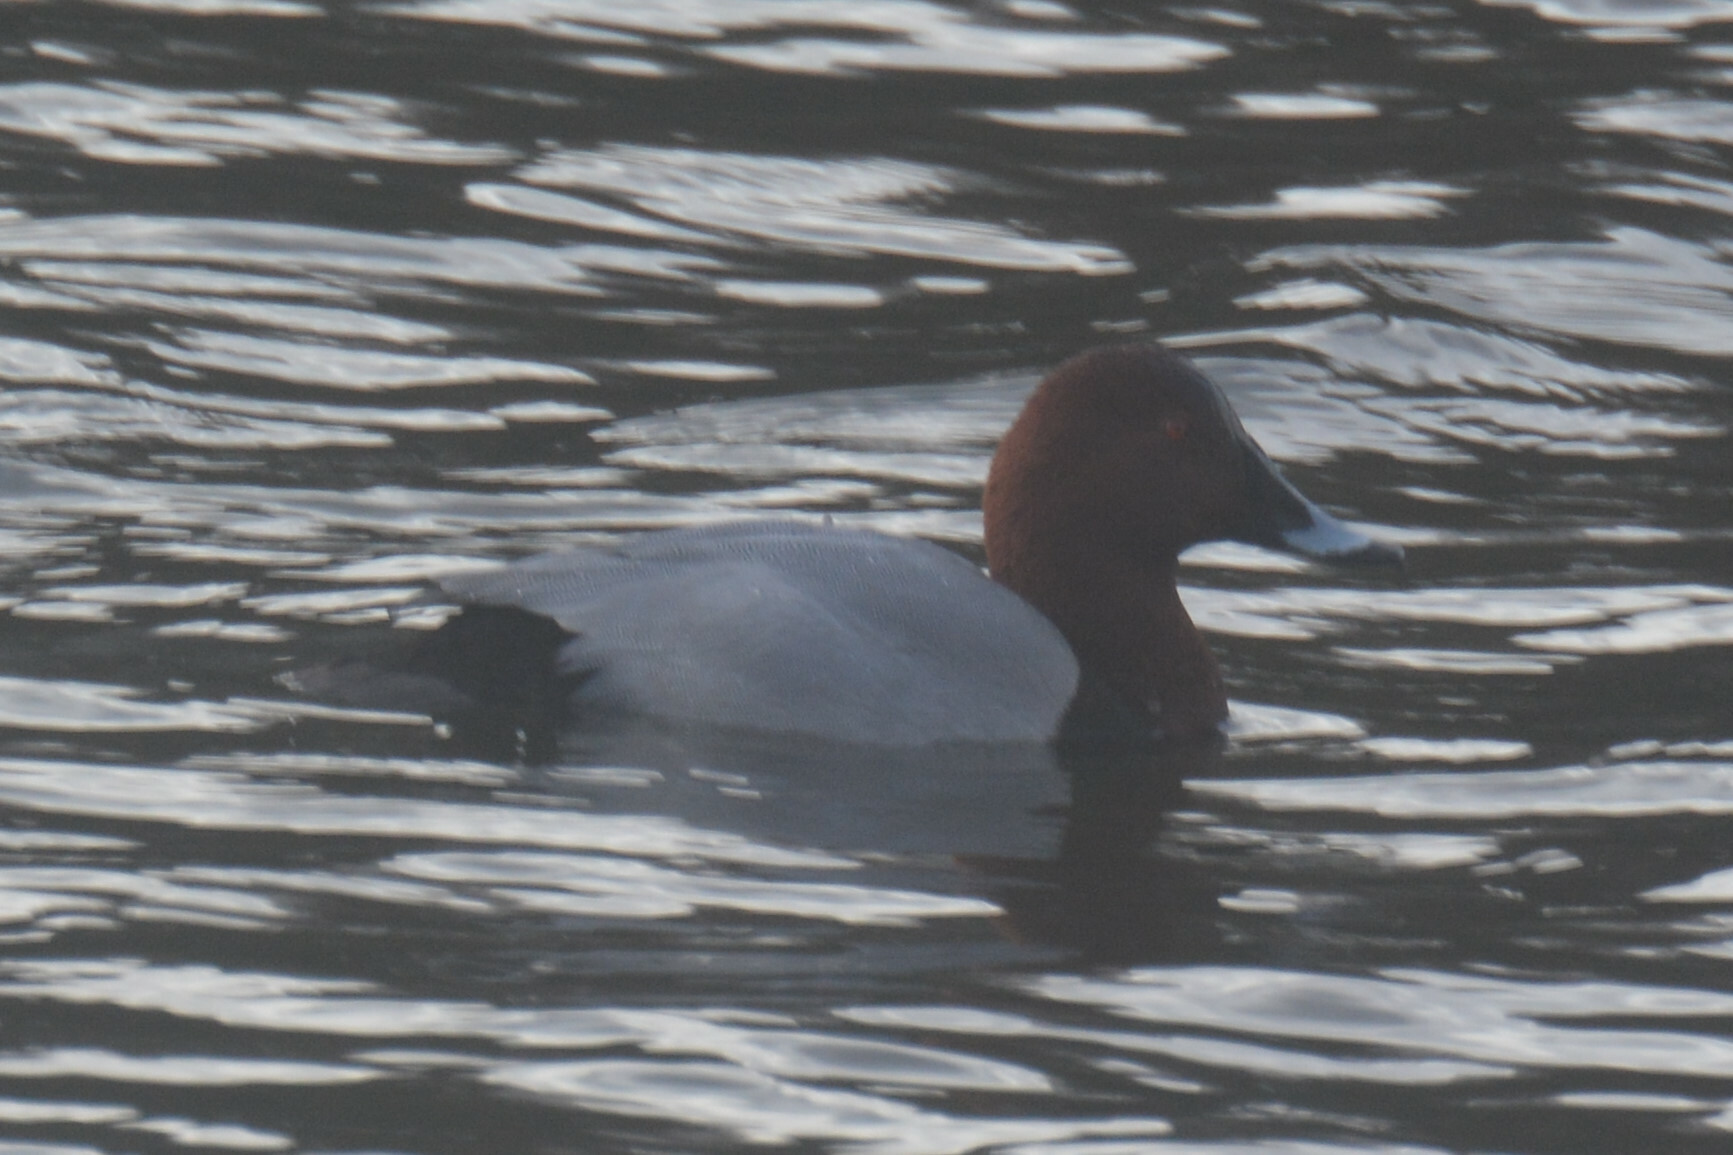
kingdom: Animalia
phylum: Chordata
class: Aves
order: Anseriformes
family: Anatidae
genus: Aythya
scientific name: Aythya ferina
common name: Common pochard
